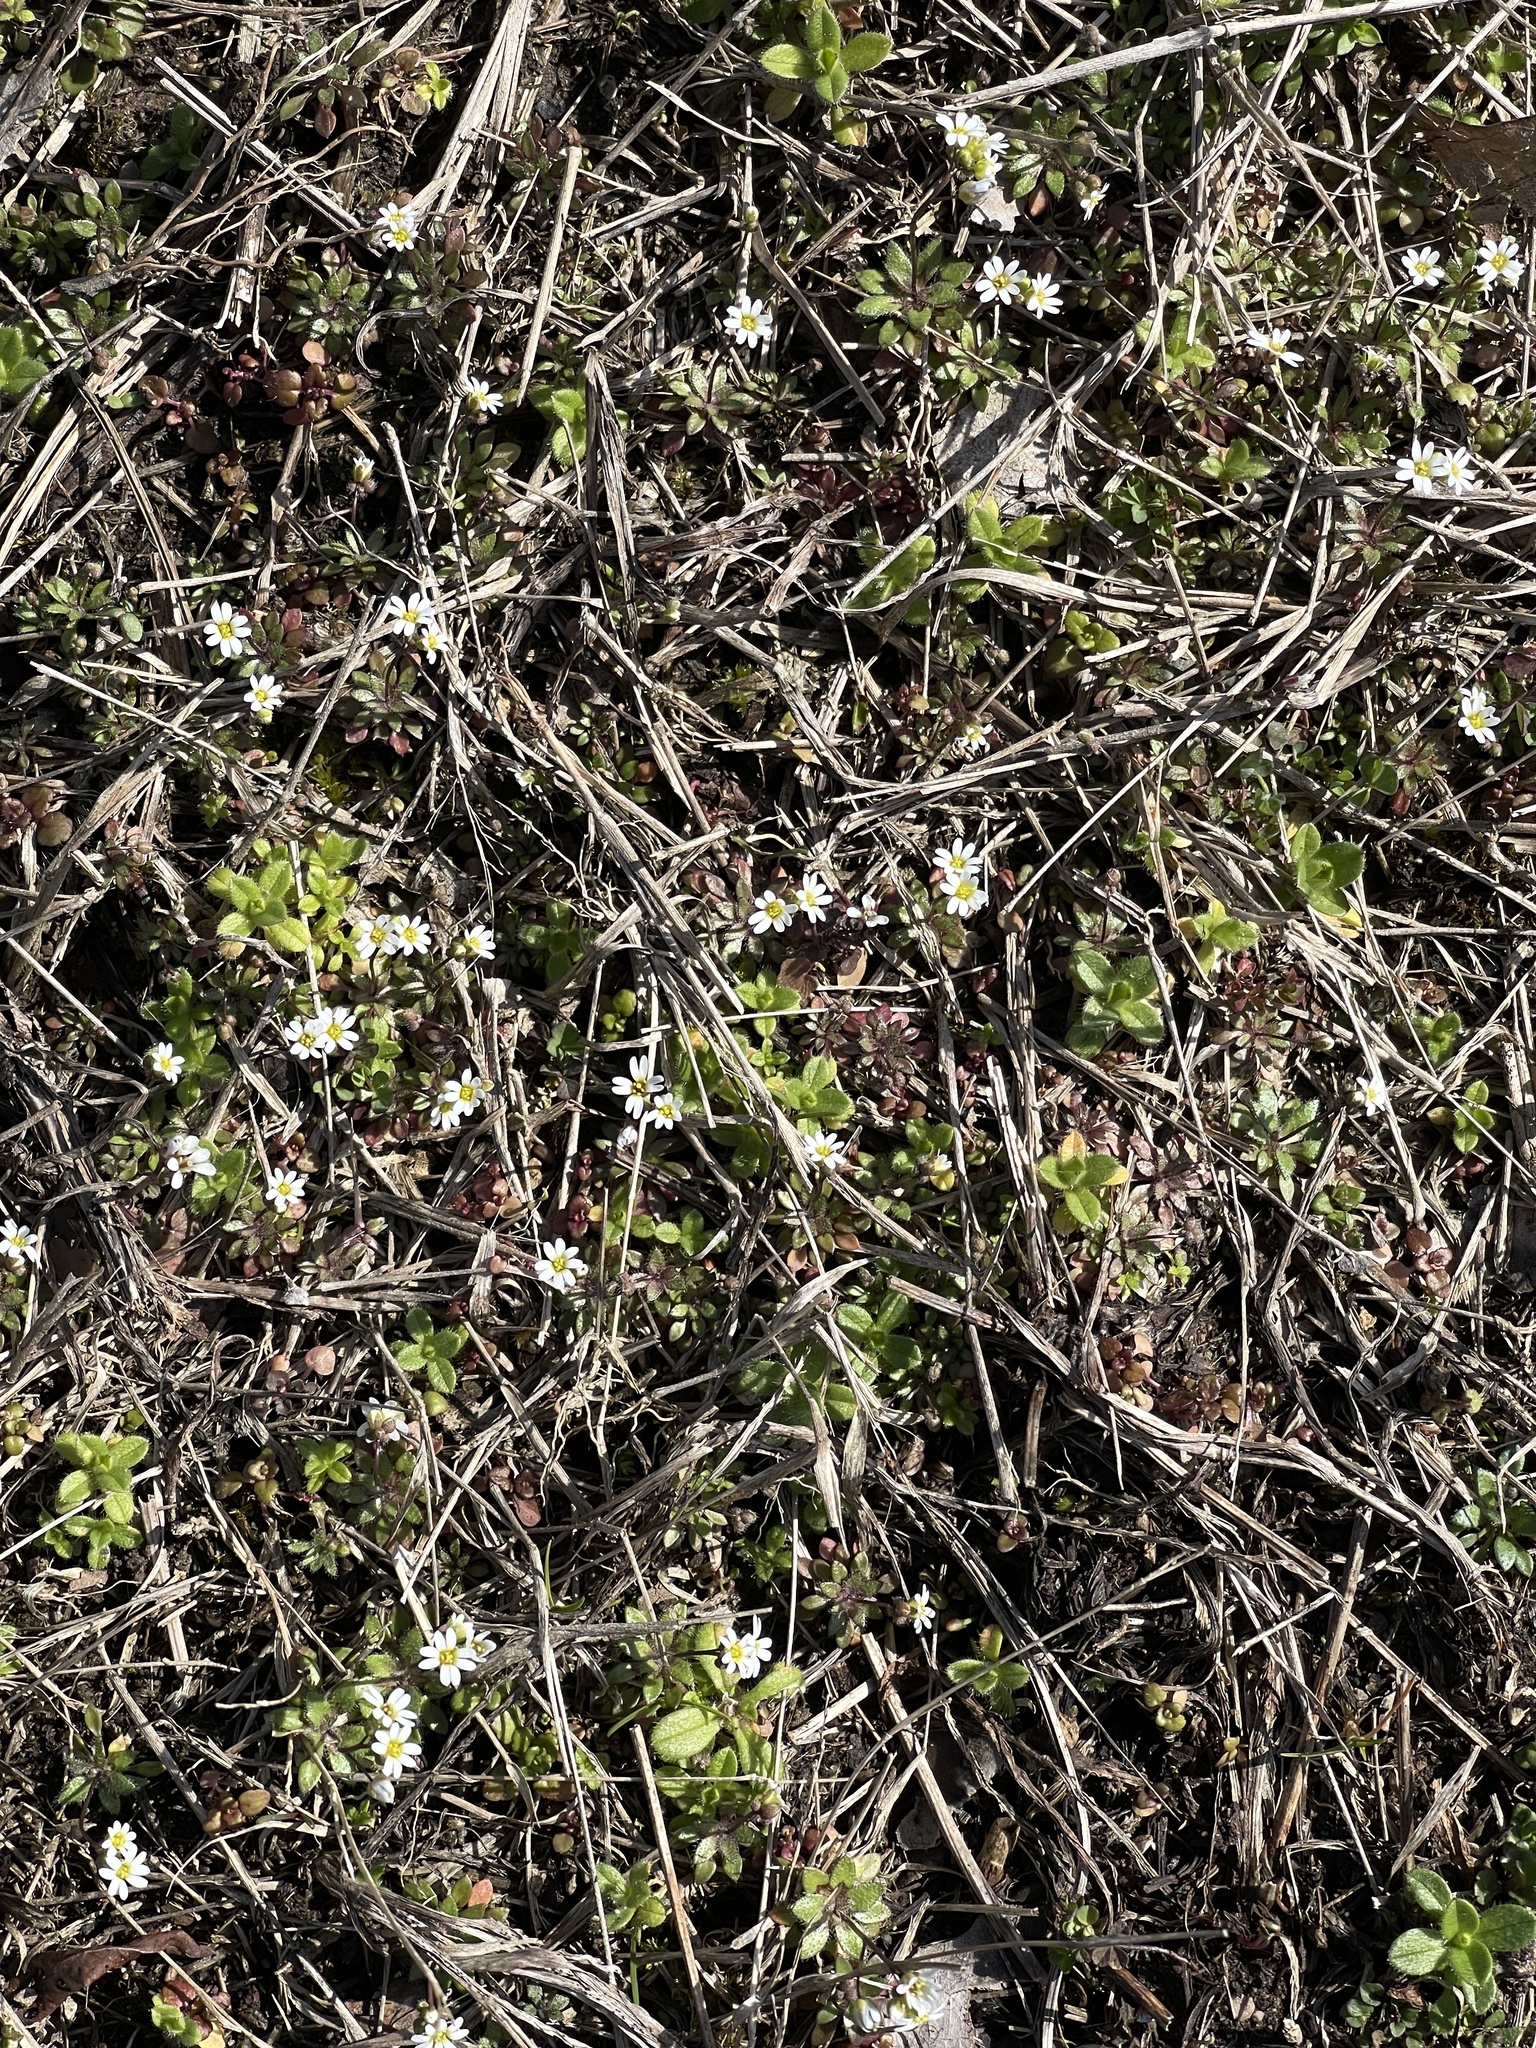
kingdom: Plantae
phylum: Tracheophyta
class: Magnoliopsida
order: Brassicales
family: Brassicaceae
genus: Draba
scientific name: Draba verna
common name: Spring draba
